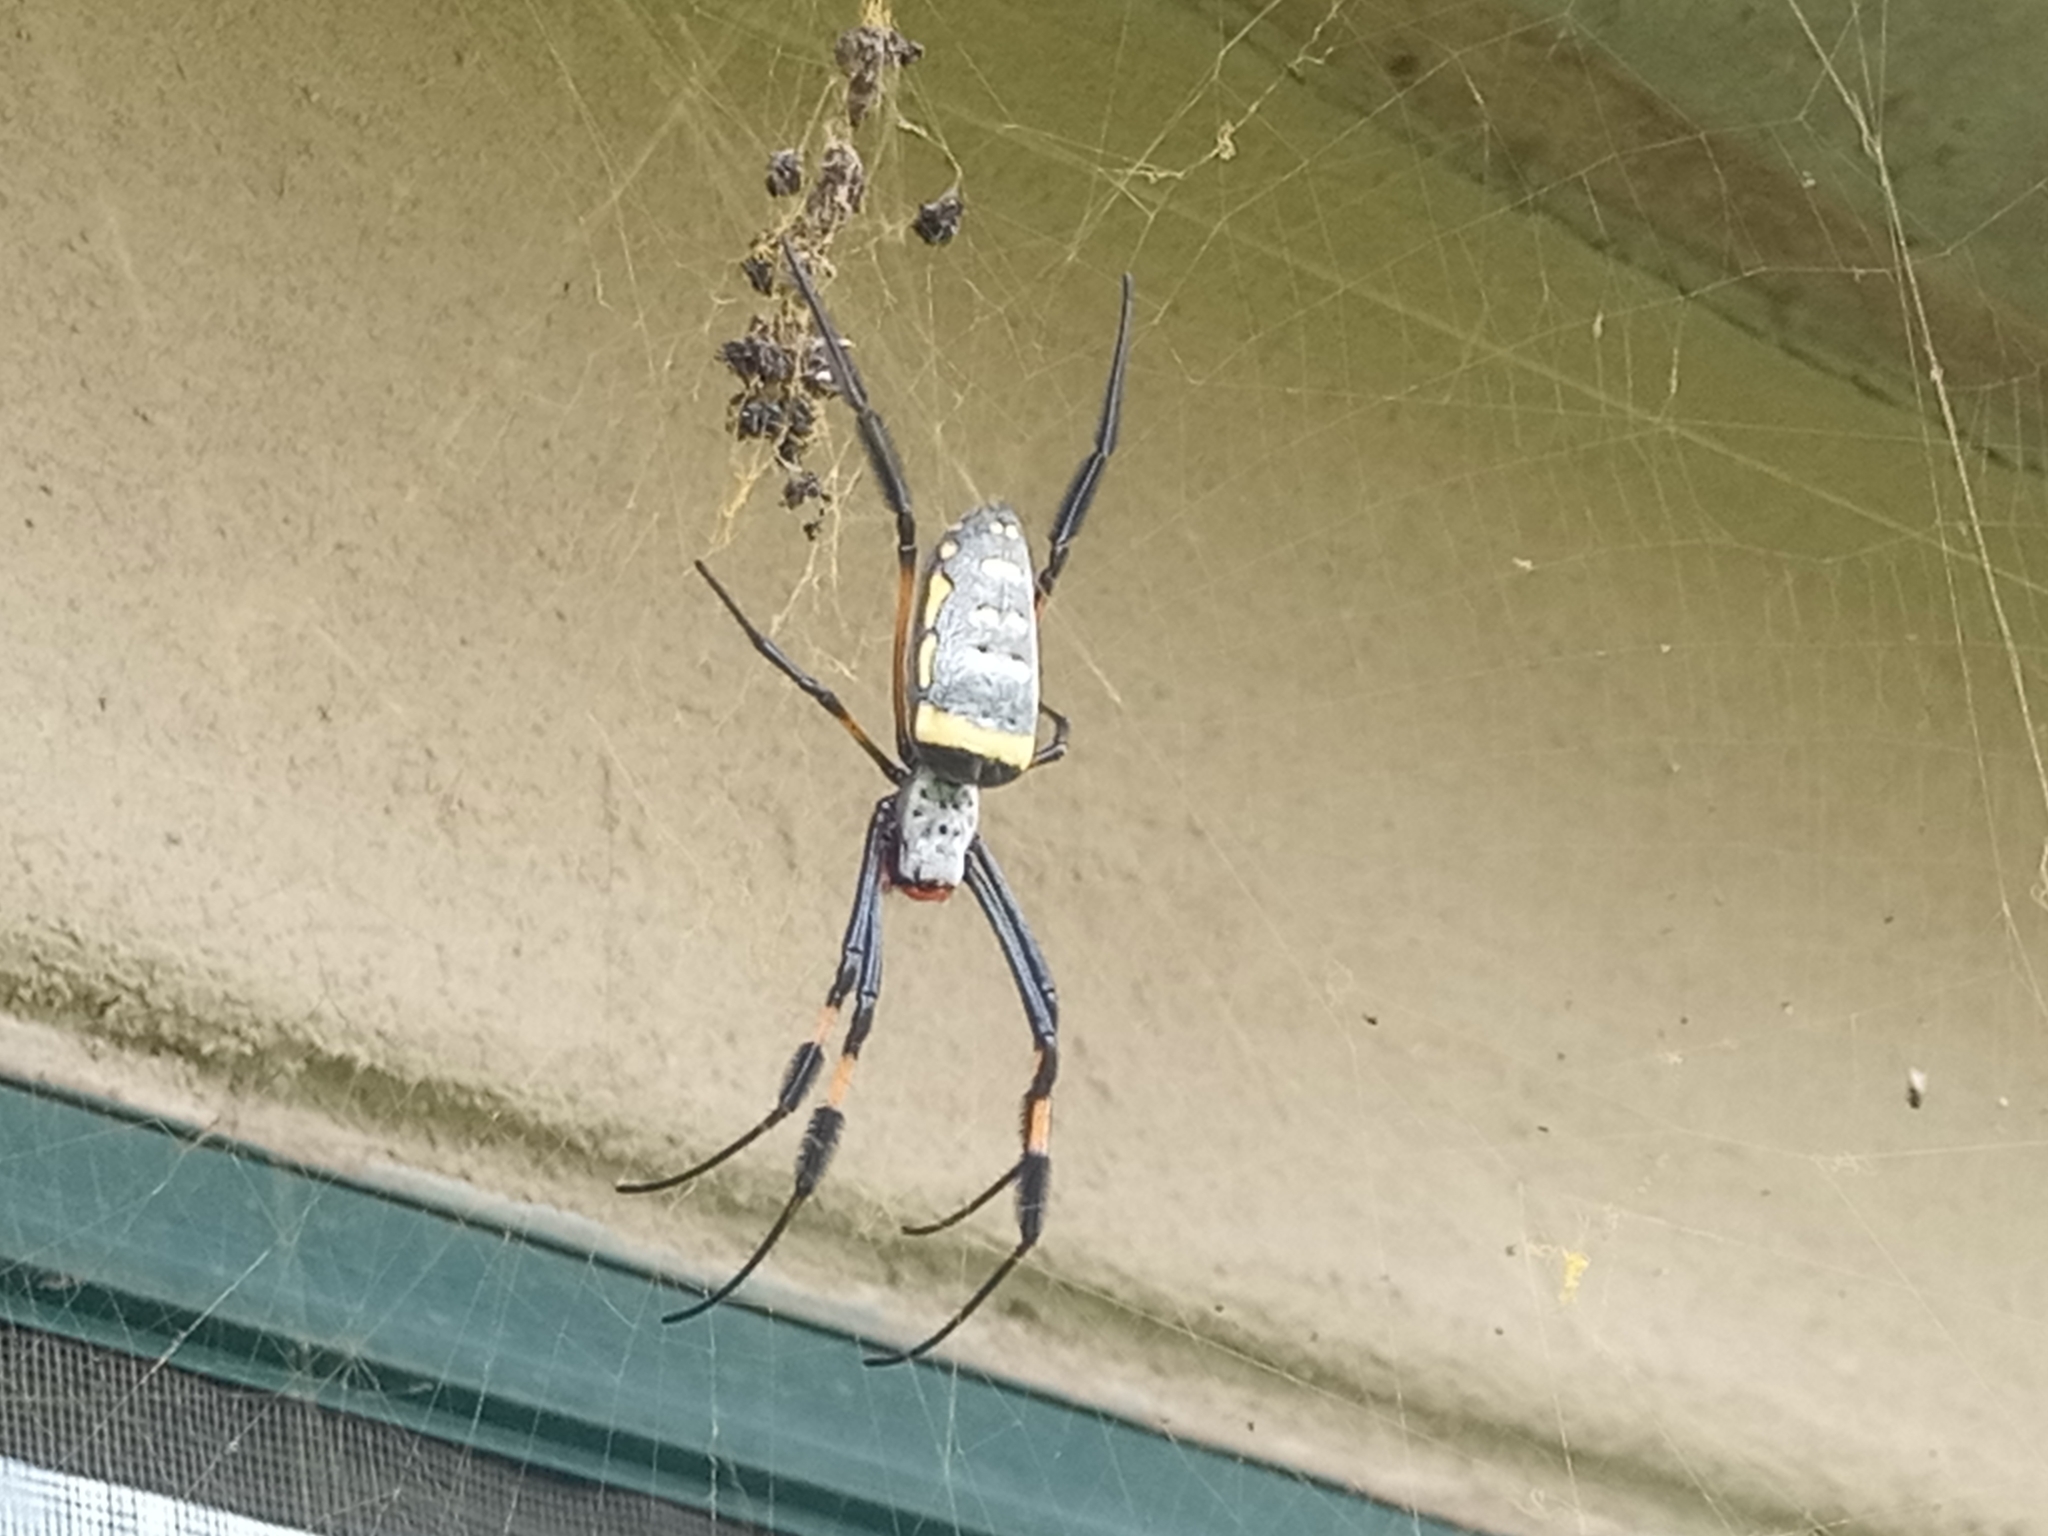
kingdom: Animalia
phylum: Arthropoda
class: Arachnida
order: Araneae
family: Araneidae
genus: Trichonephila
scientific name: Trichonephila senegalensis
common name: Banded golden orb weaver
